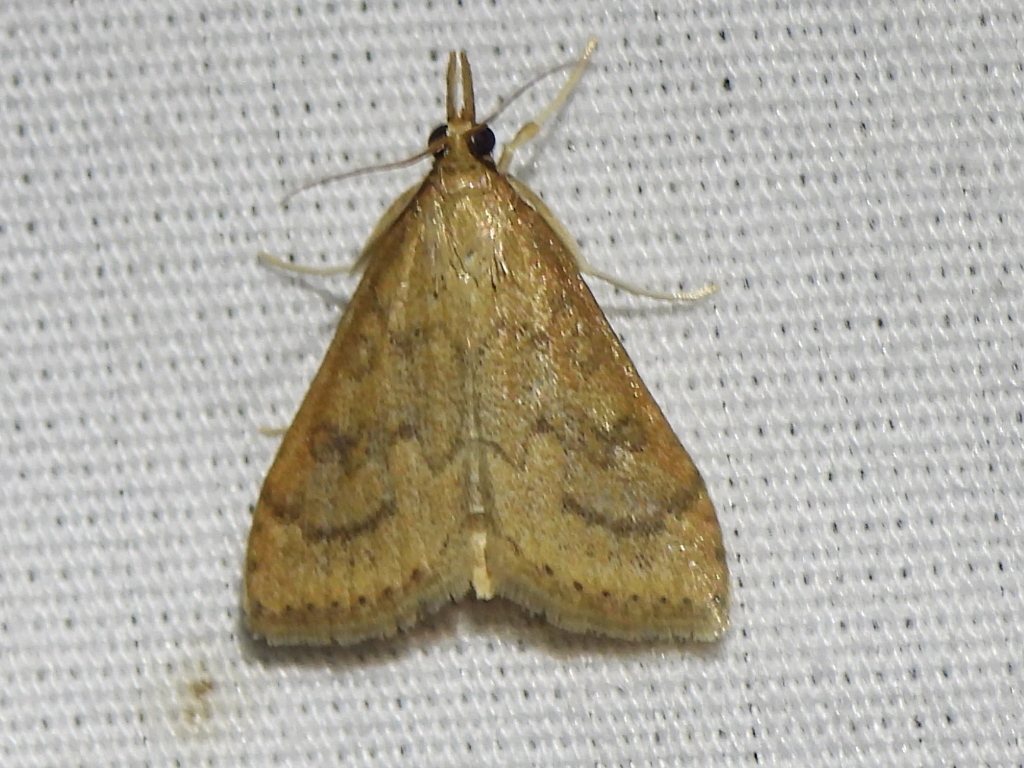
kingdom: Animalia
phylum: Arthropoda
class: Insecta
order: Lepidoptera
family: Crambidae
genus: Udea
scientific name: Udea rubigalis
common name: Celery leaftier moth
